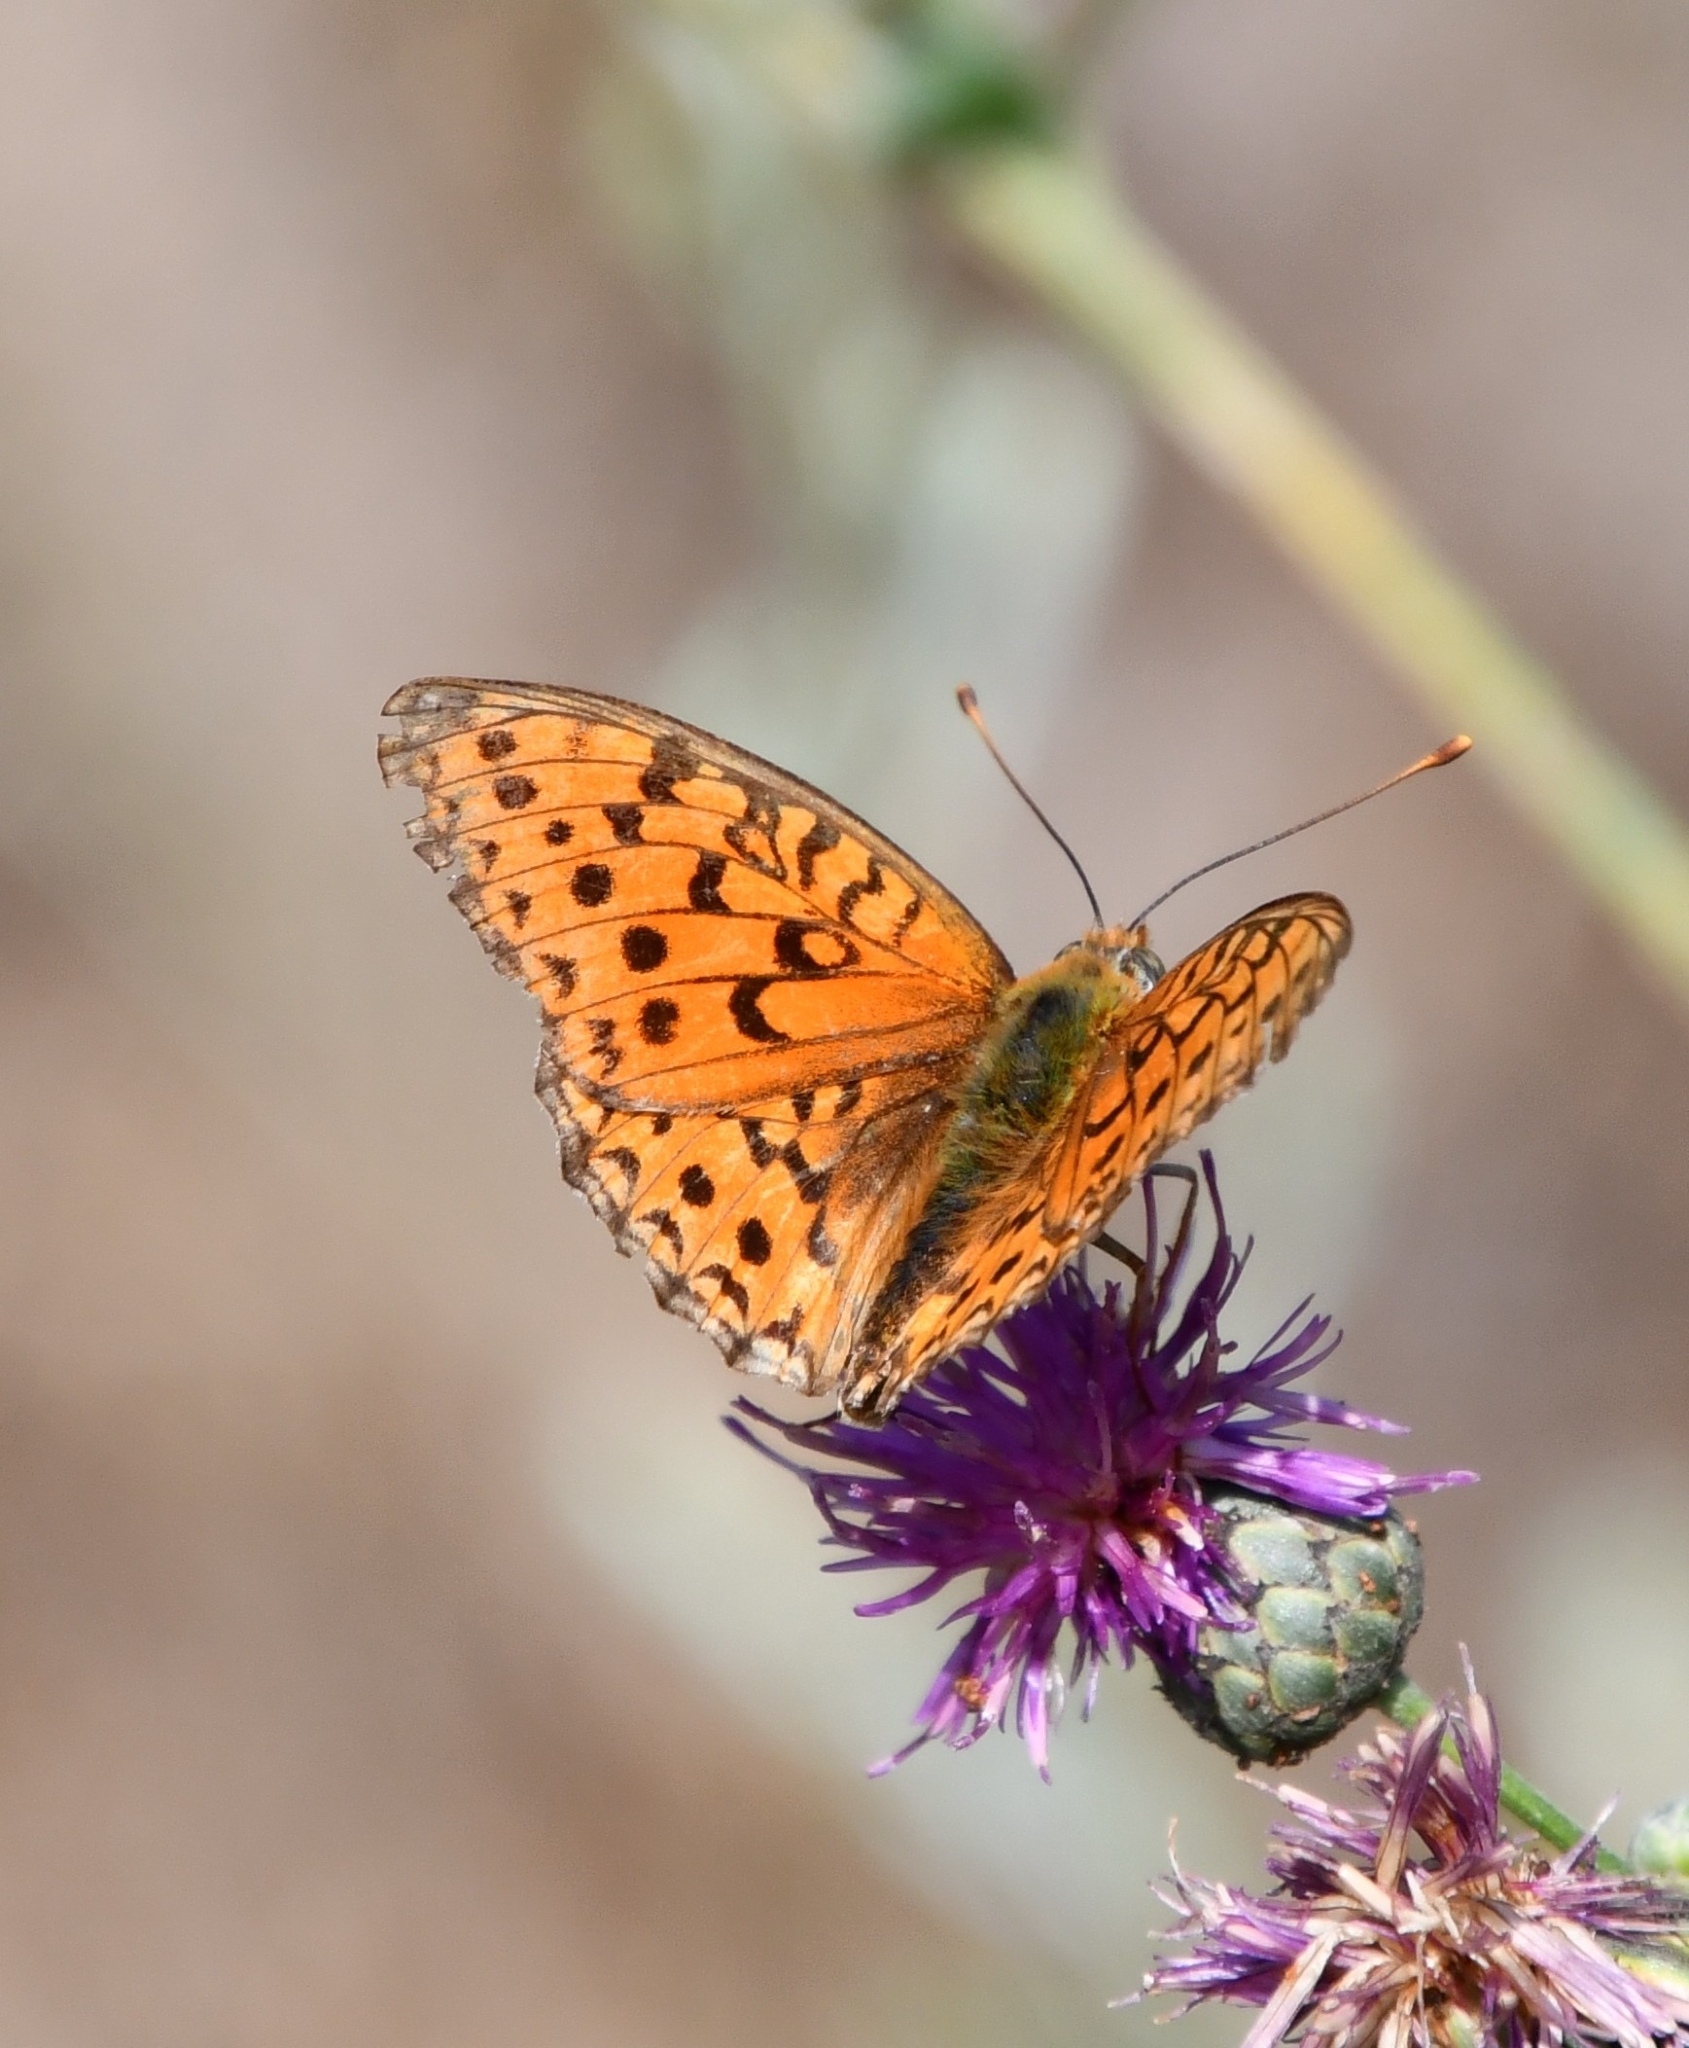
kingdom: Animalia
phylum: Arthropoda
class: Insecta
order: Lepidoptera
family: Nymphalidae
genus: Fabriciana
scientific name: Fabriciana niobe
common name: Niobe fritillary
